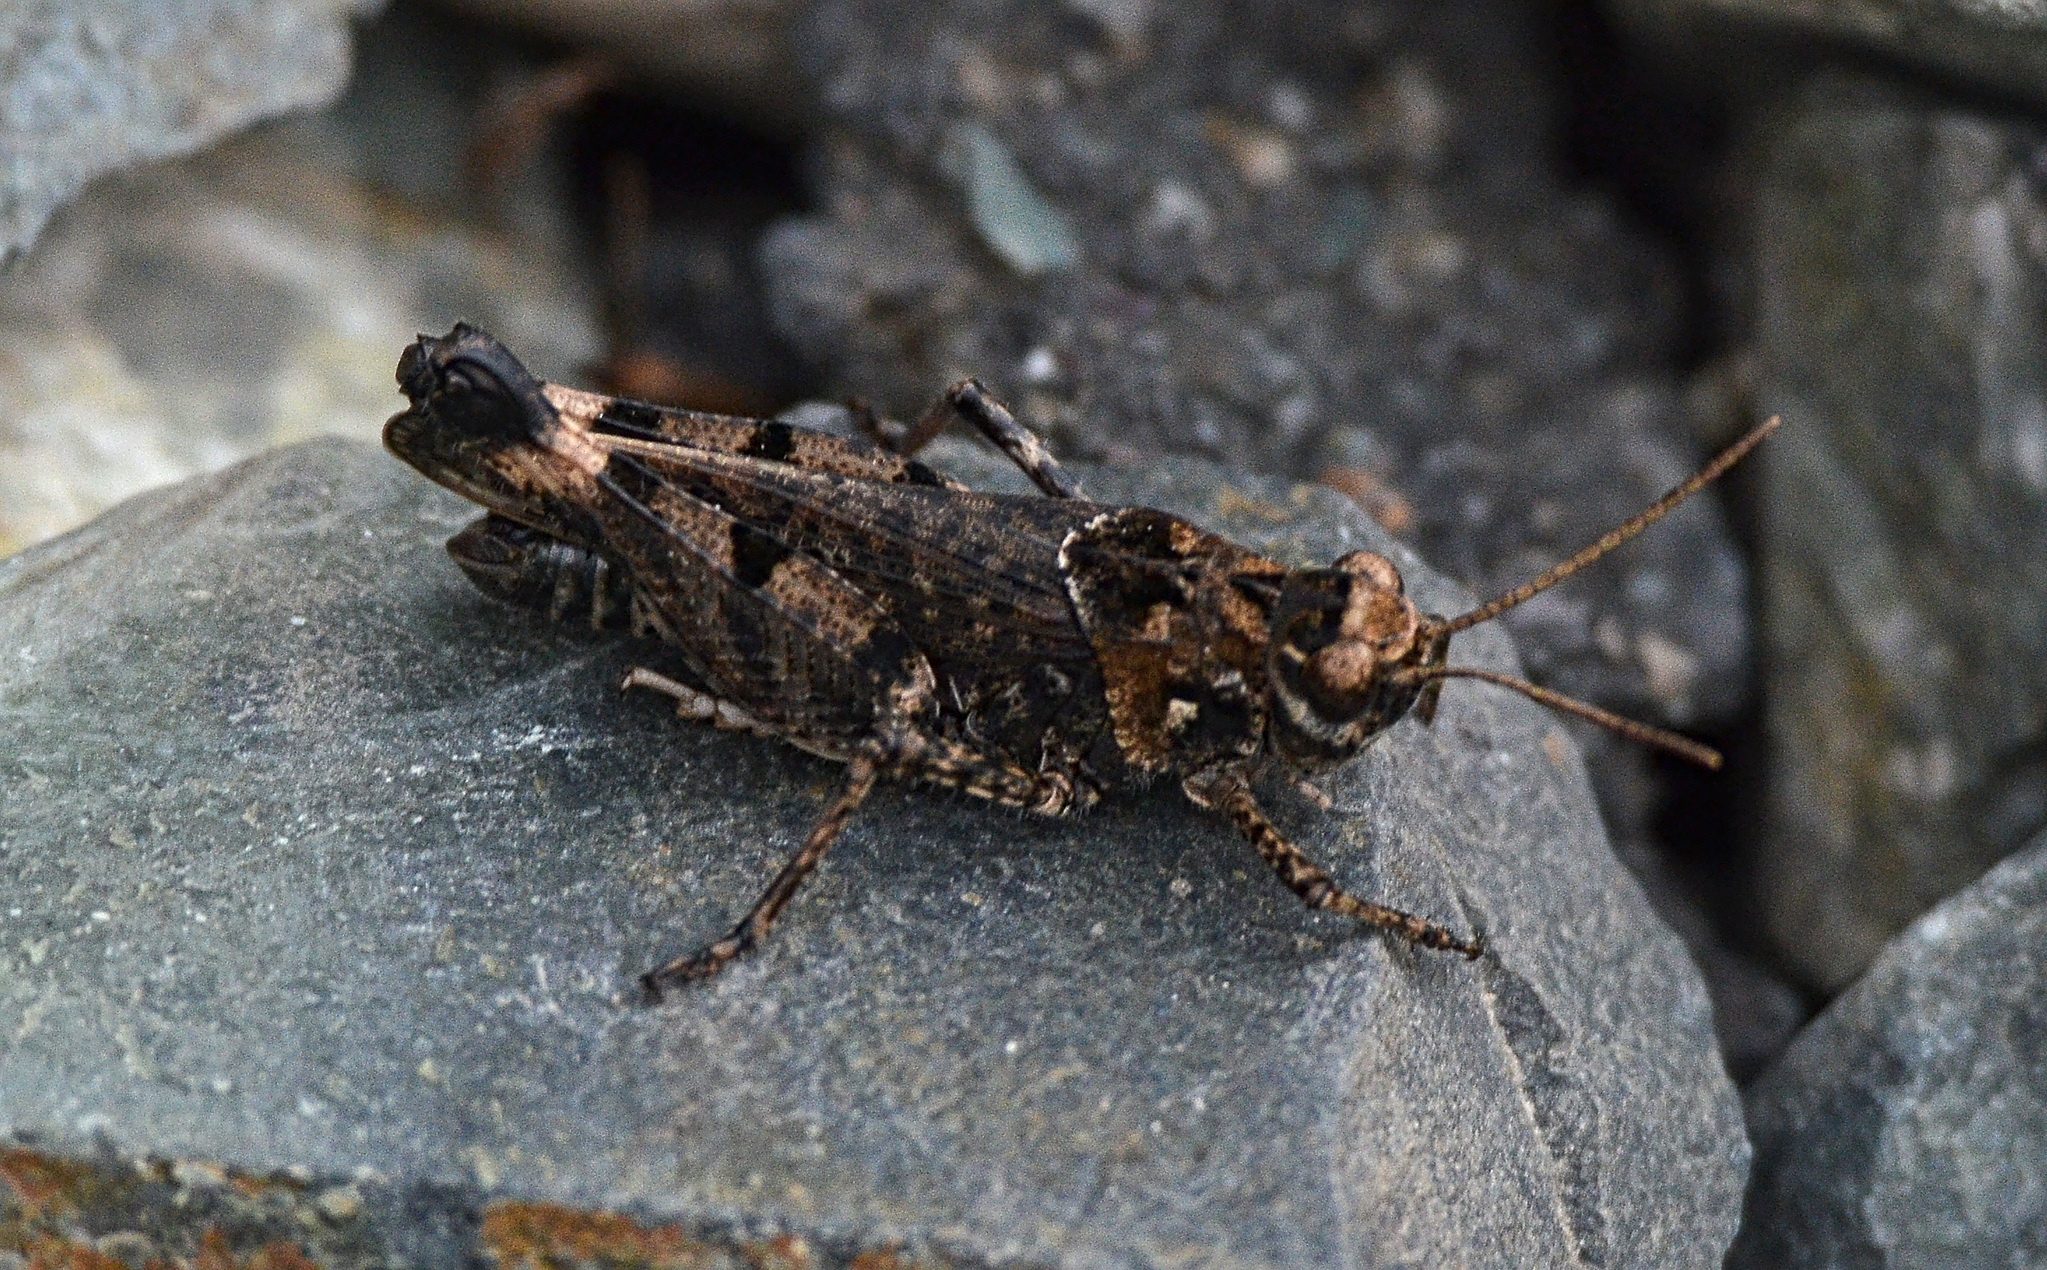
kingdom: Animalia
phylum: Arthropoda
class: Insecta
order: Orthoptera
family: Acrididae
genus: Celes
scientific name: Celes skalozubovi
